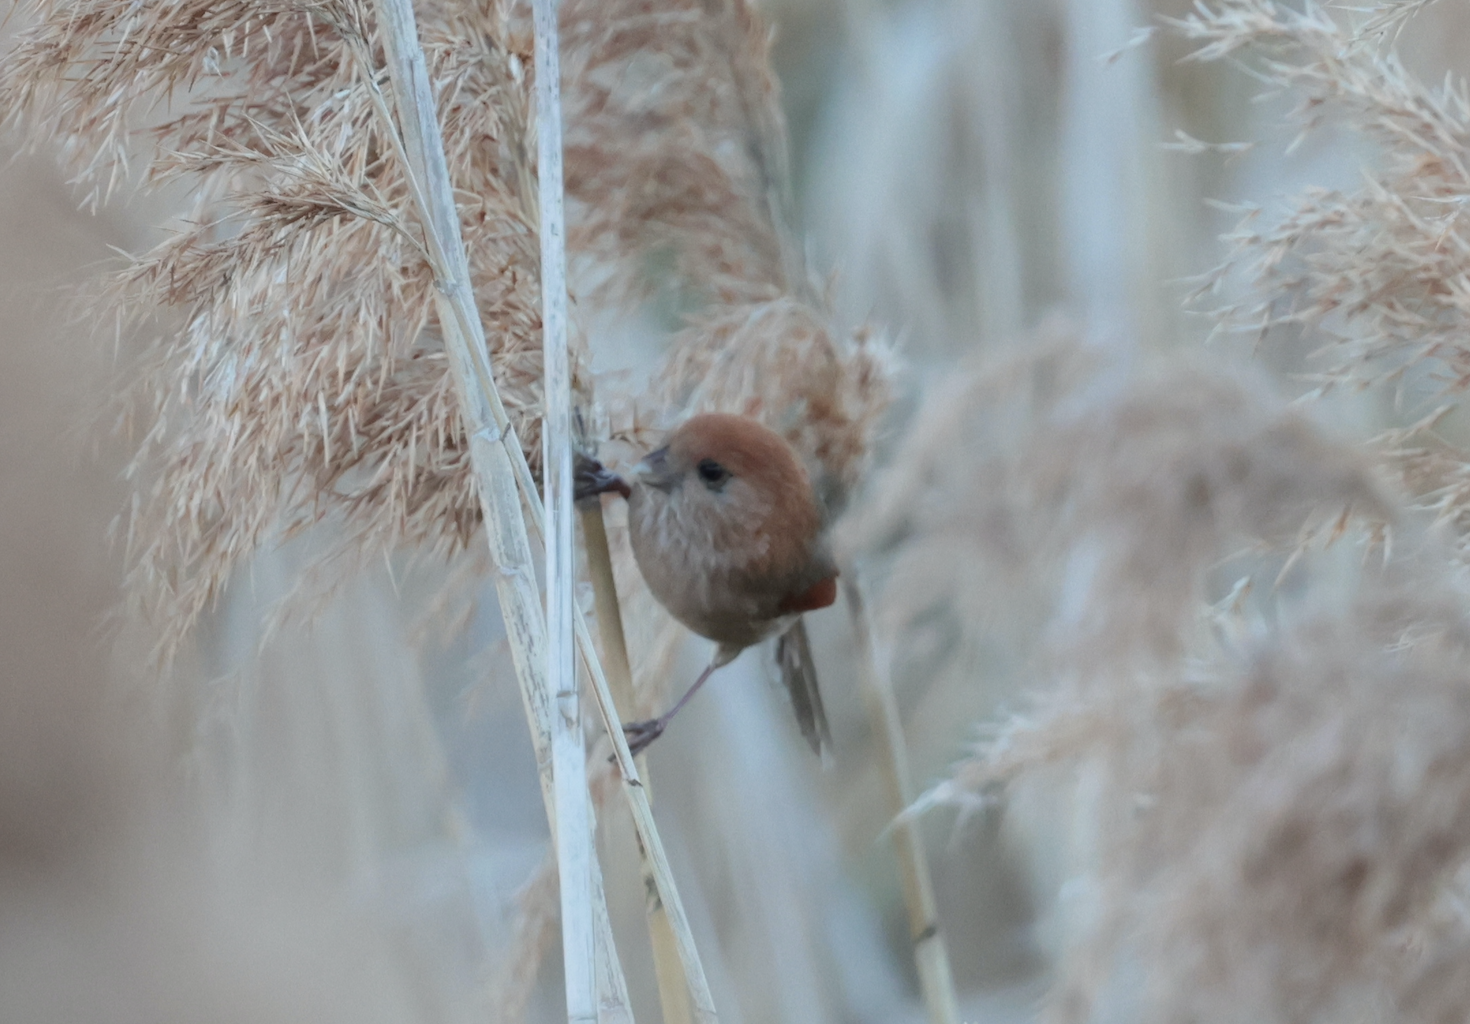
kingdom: Animalia
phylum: Chordata
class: Aves
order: Passeriformes
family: Sylviidae
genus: Sinosuthora
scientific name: Sinosuthora webbiana
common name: Vinous-throated parrotbill
